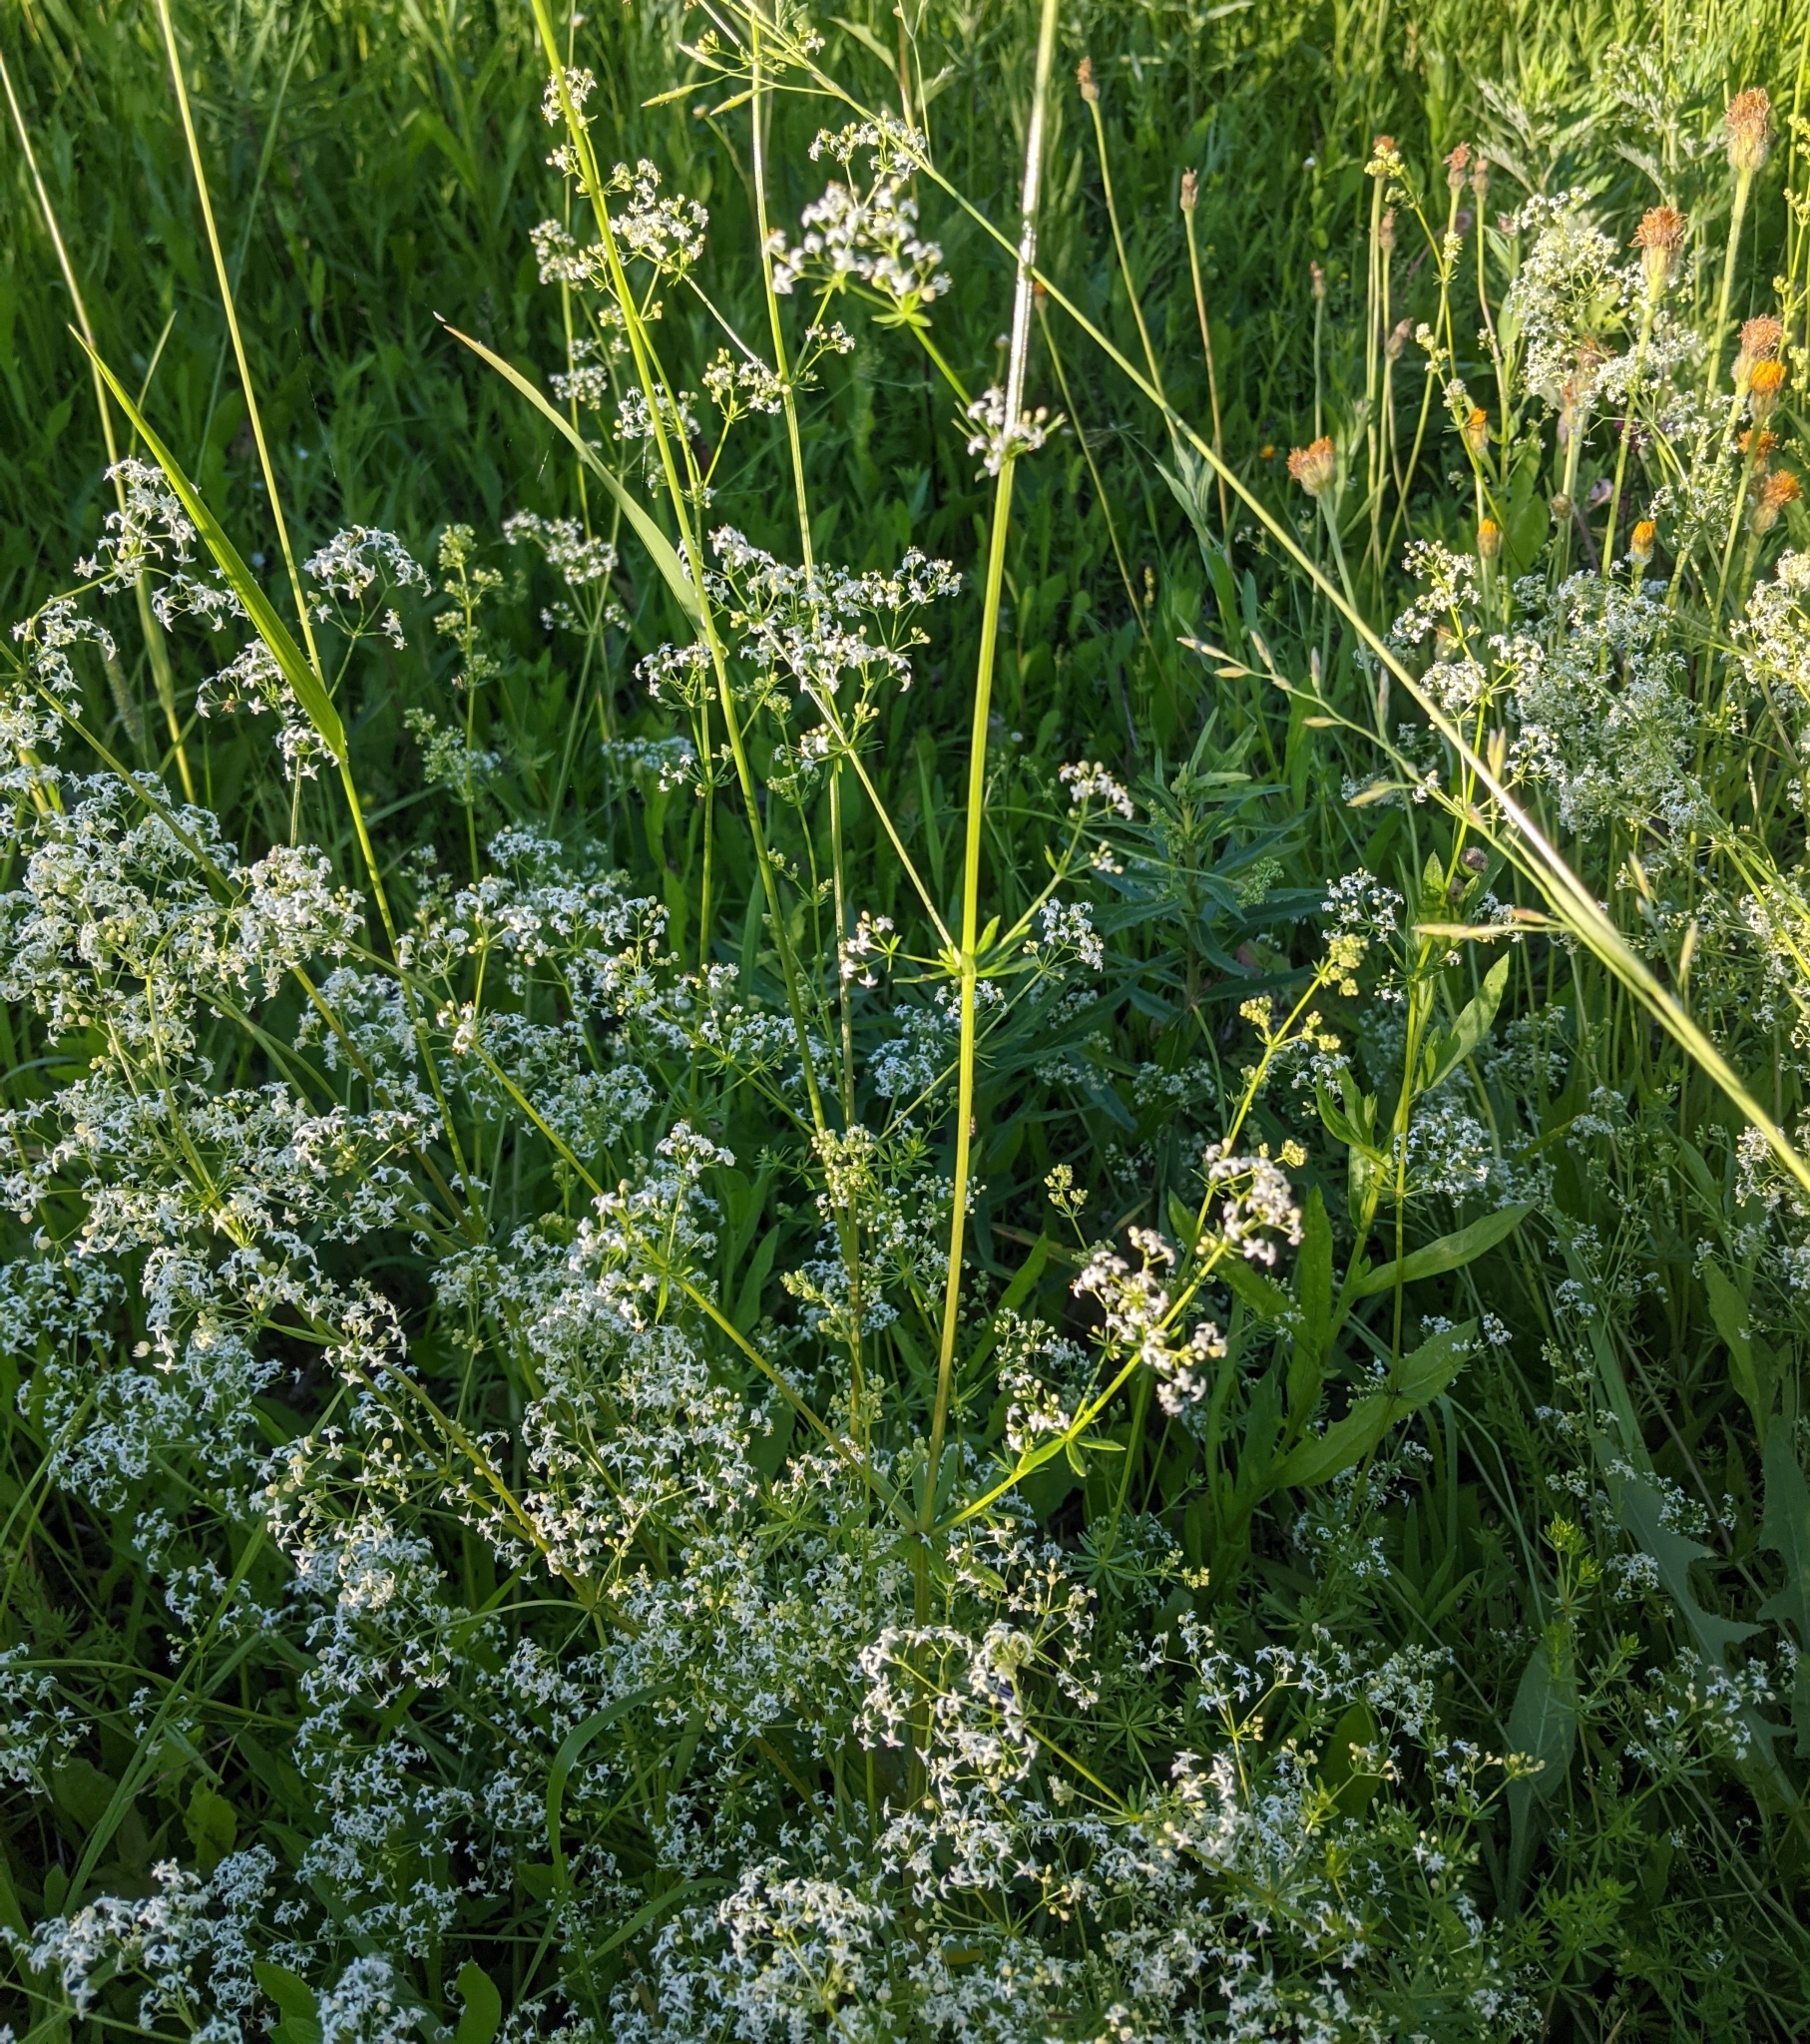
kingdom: Plantae
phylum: Tracheophyta
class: Magnoliopsida
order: Gentianales
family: Rubiaceae
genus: Galium
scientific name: Galium mollugo
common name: Hedge bedstraw
